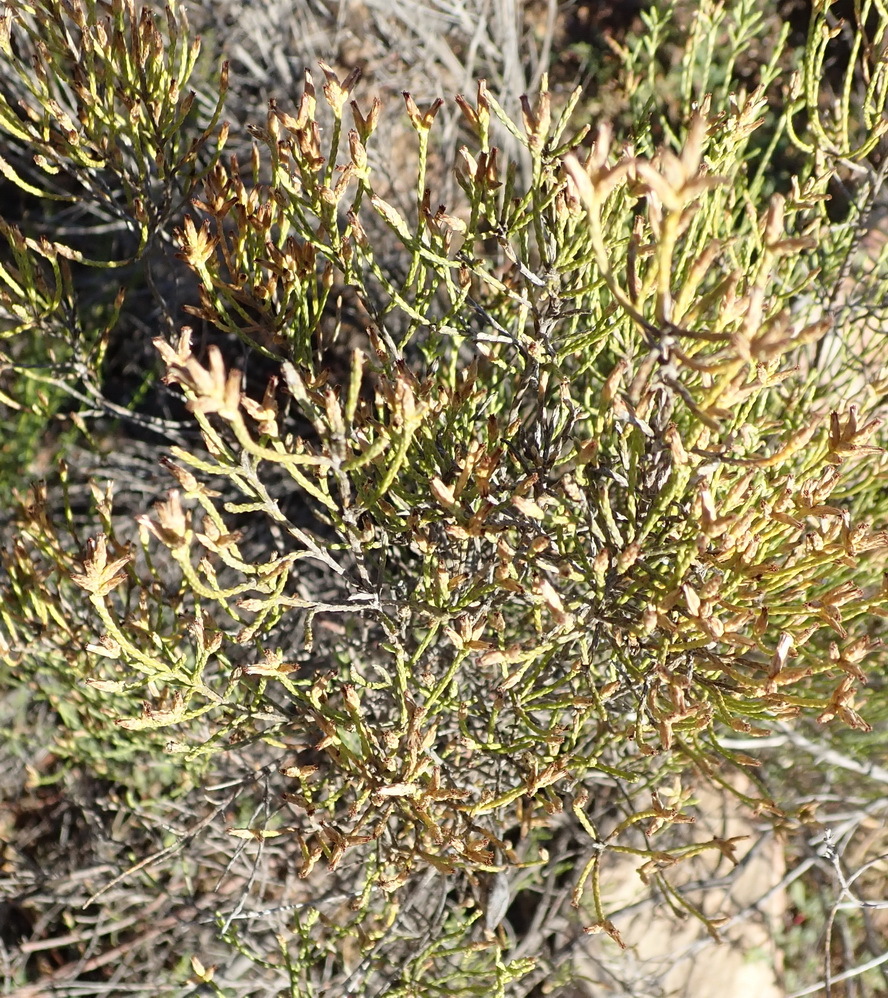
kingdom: Plantae
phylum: Tracheophyta
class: Magnoliopsida
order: Asterales
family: Asteraceae
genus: Dicerothamnus
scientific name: Dicerothamnus adpressus
